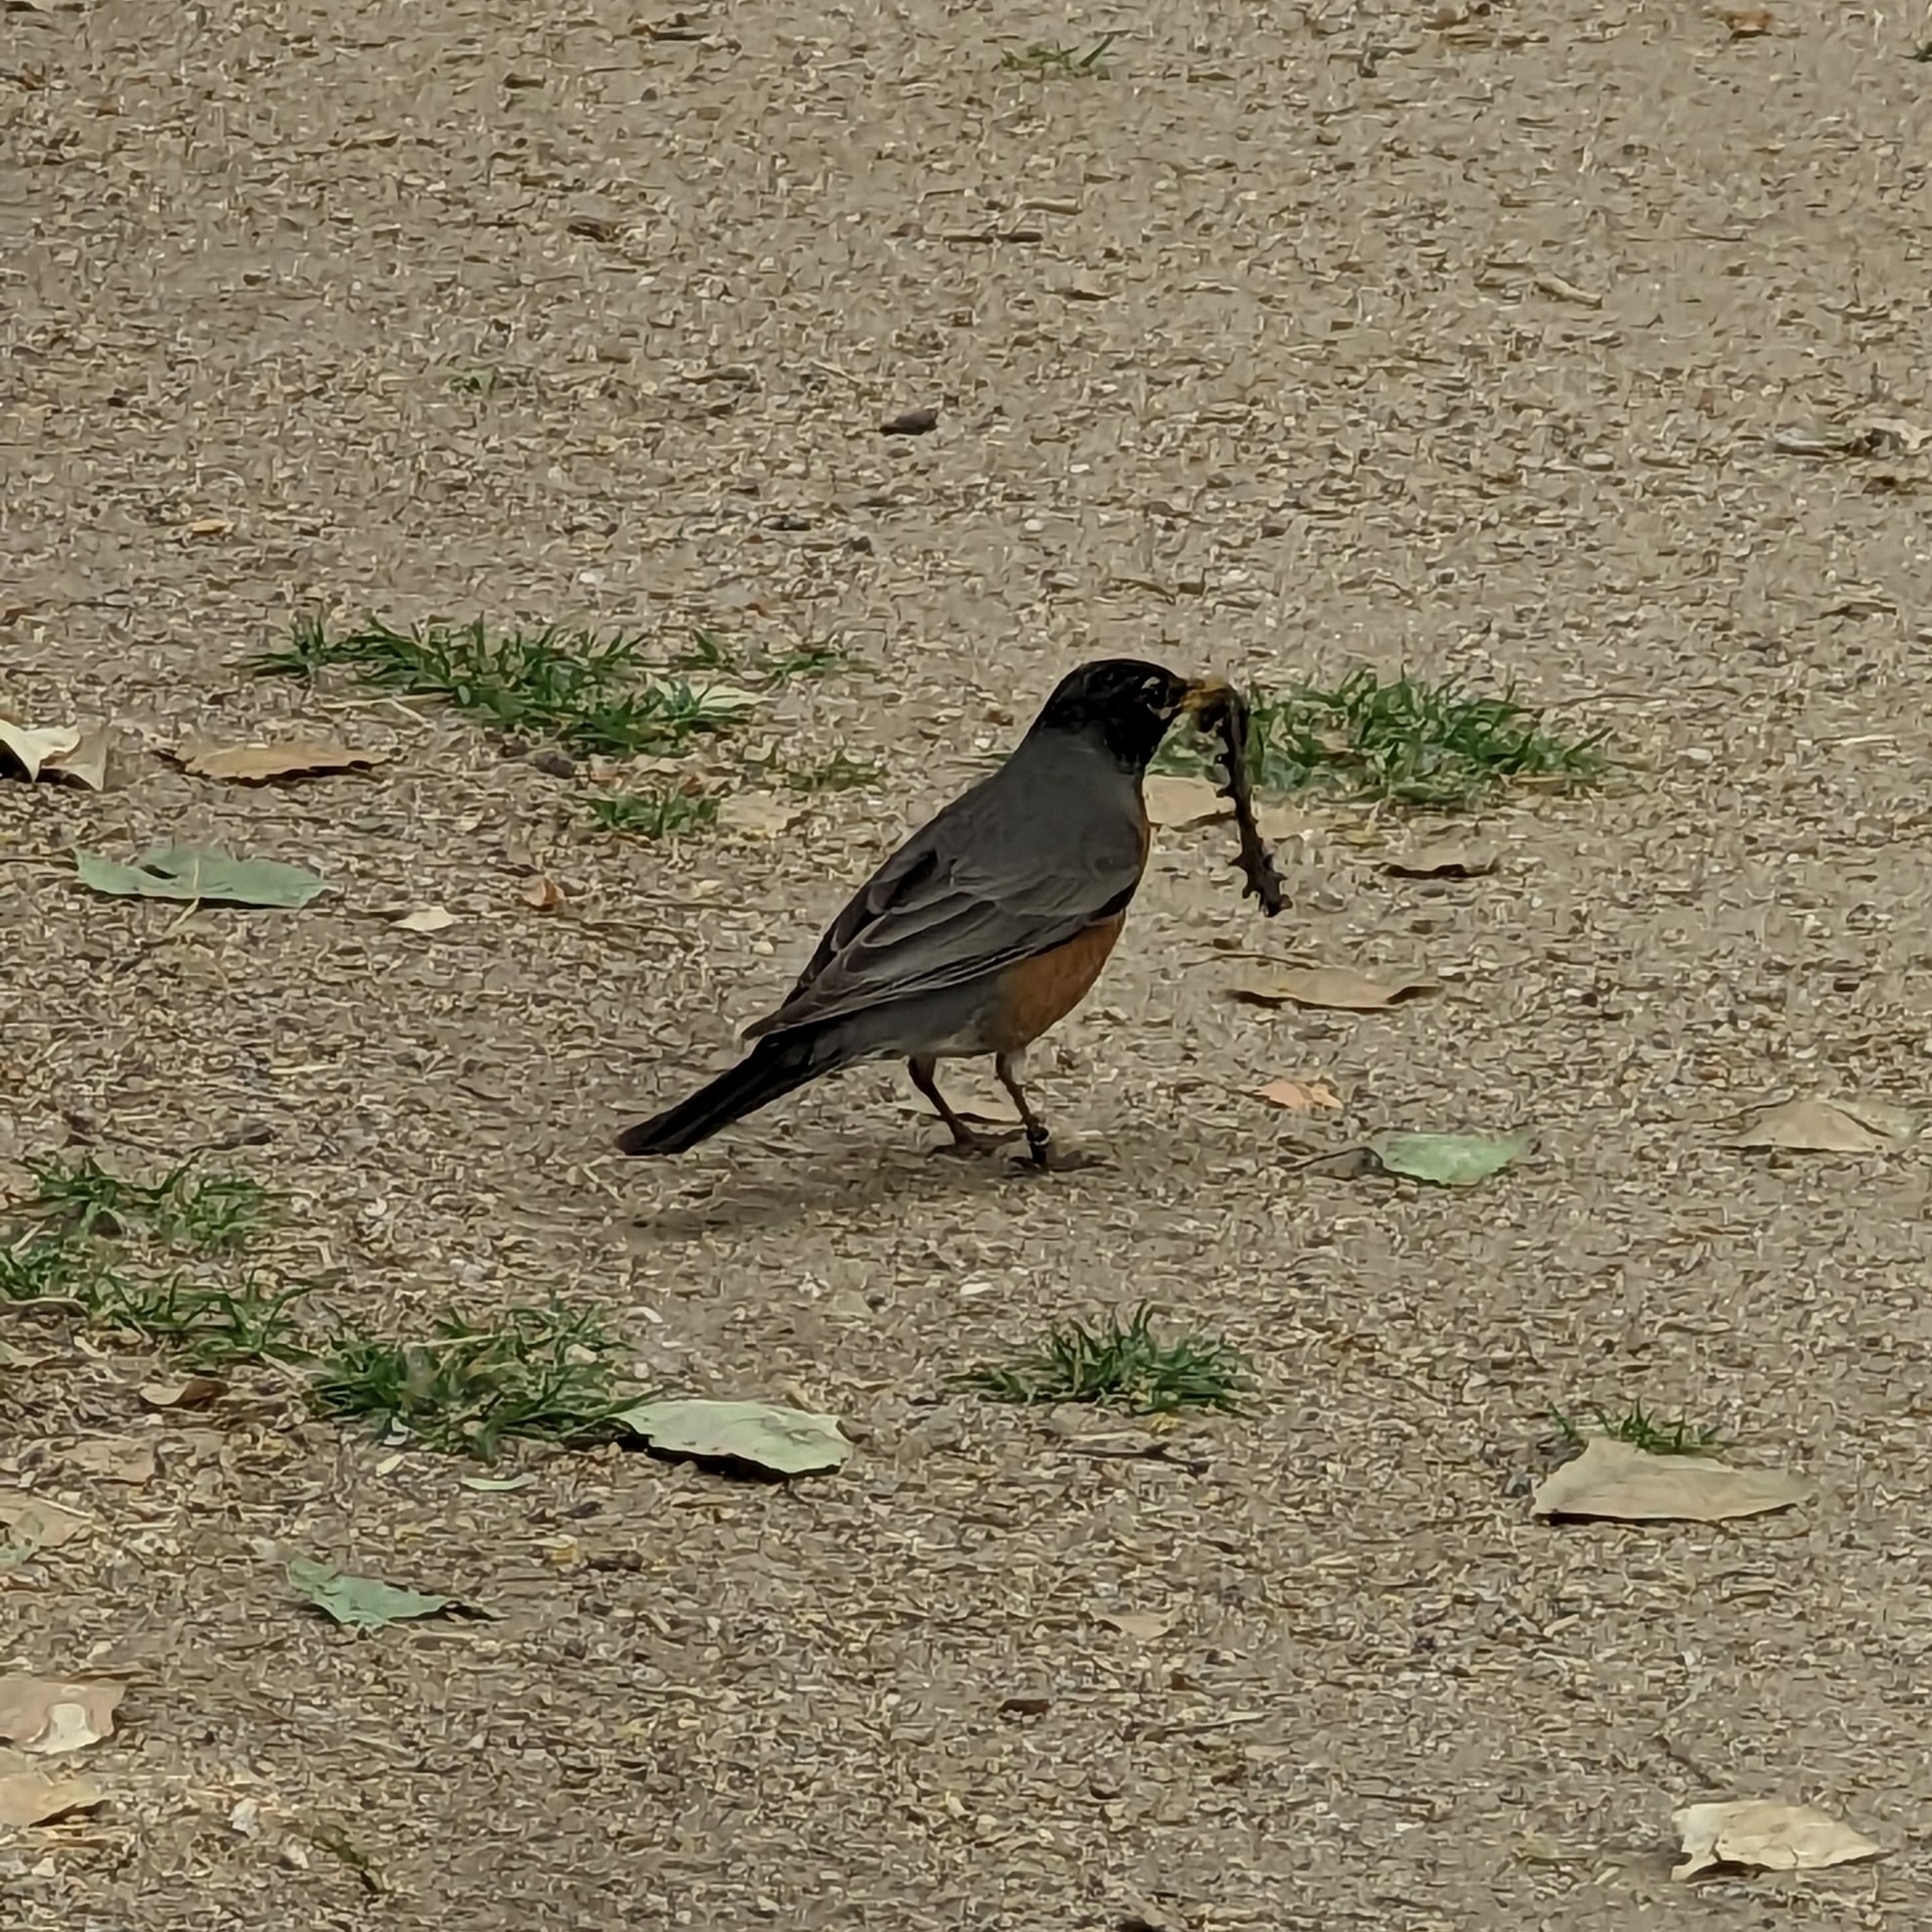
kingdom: Animalia
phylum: Chordata
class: Aves
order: Passeriformes
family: Turdidae
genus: Turdus
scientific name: Turdus migratorius
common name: American robin
